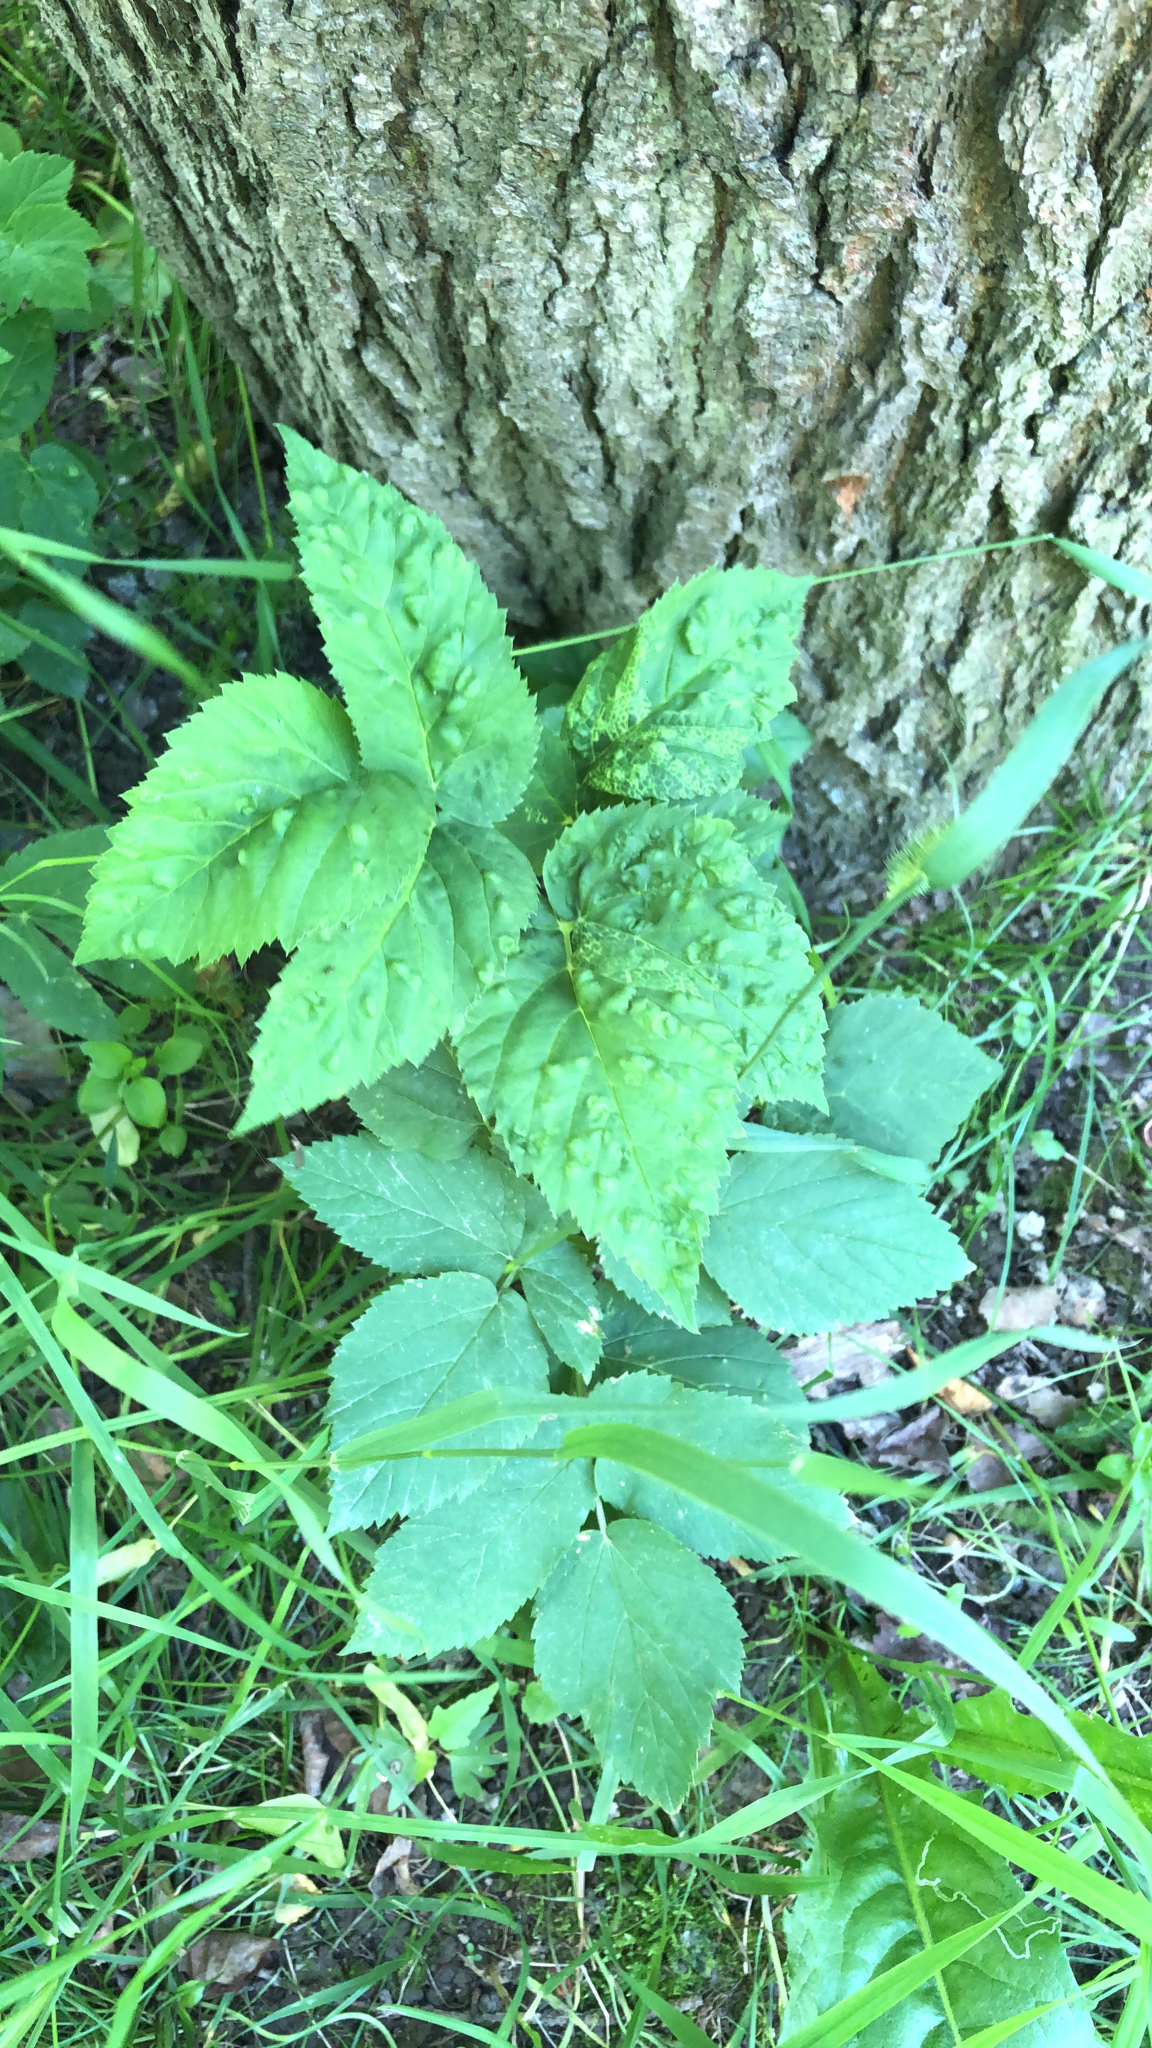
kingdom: Plantae
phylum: Tracheophyta
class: Magnoliopsida
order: Apiales
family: Apiaceae
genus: Aegopodium
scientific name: Aegopodium podagraria
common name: Ground-elder
